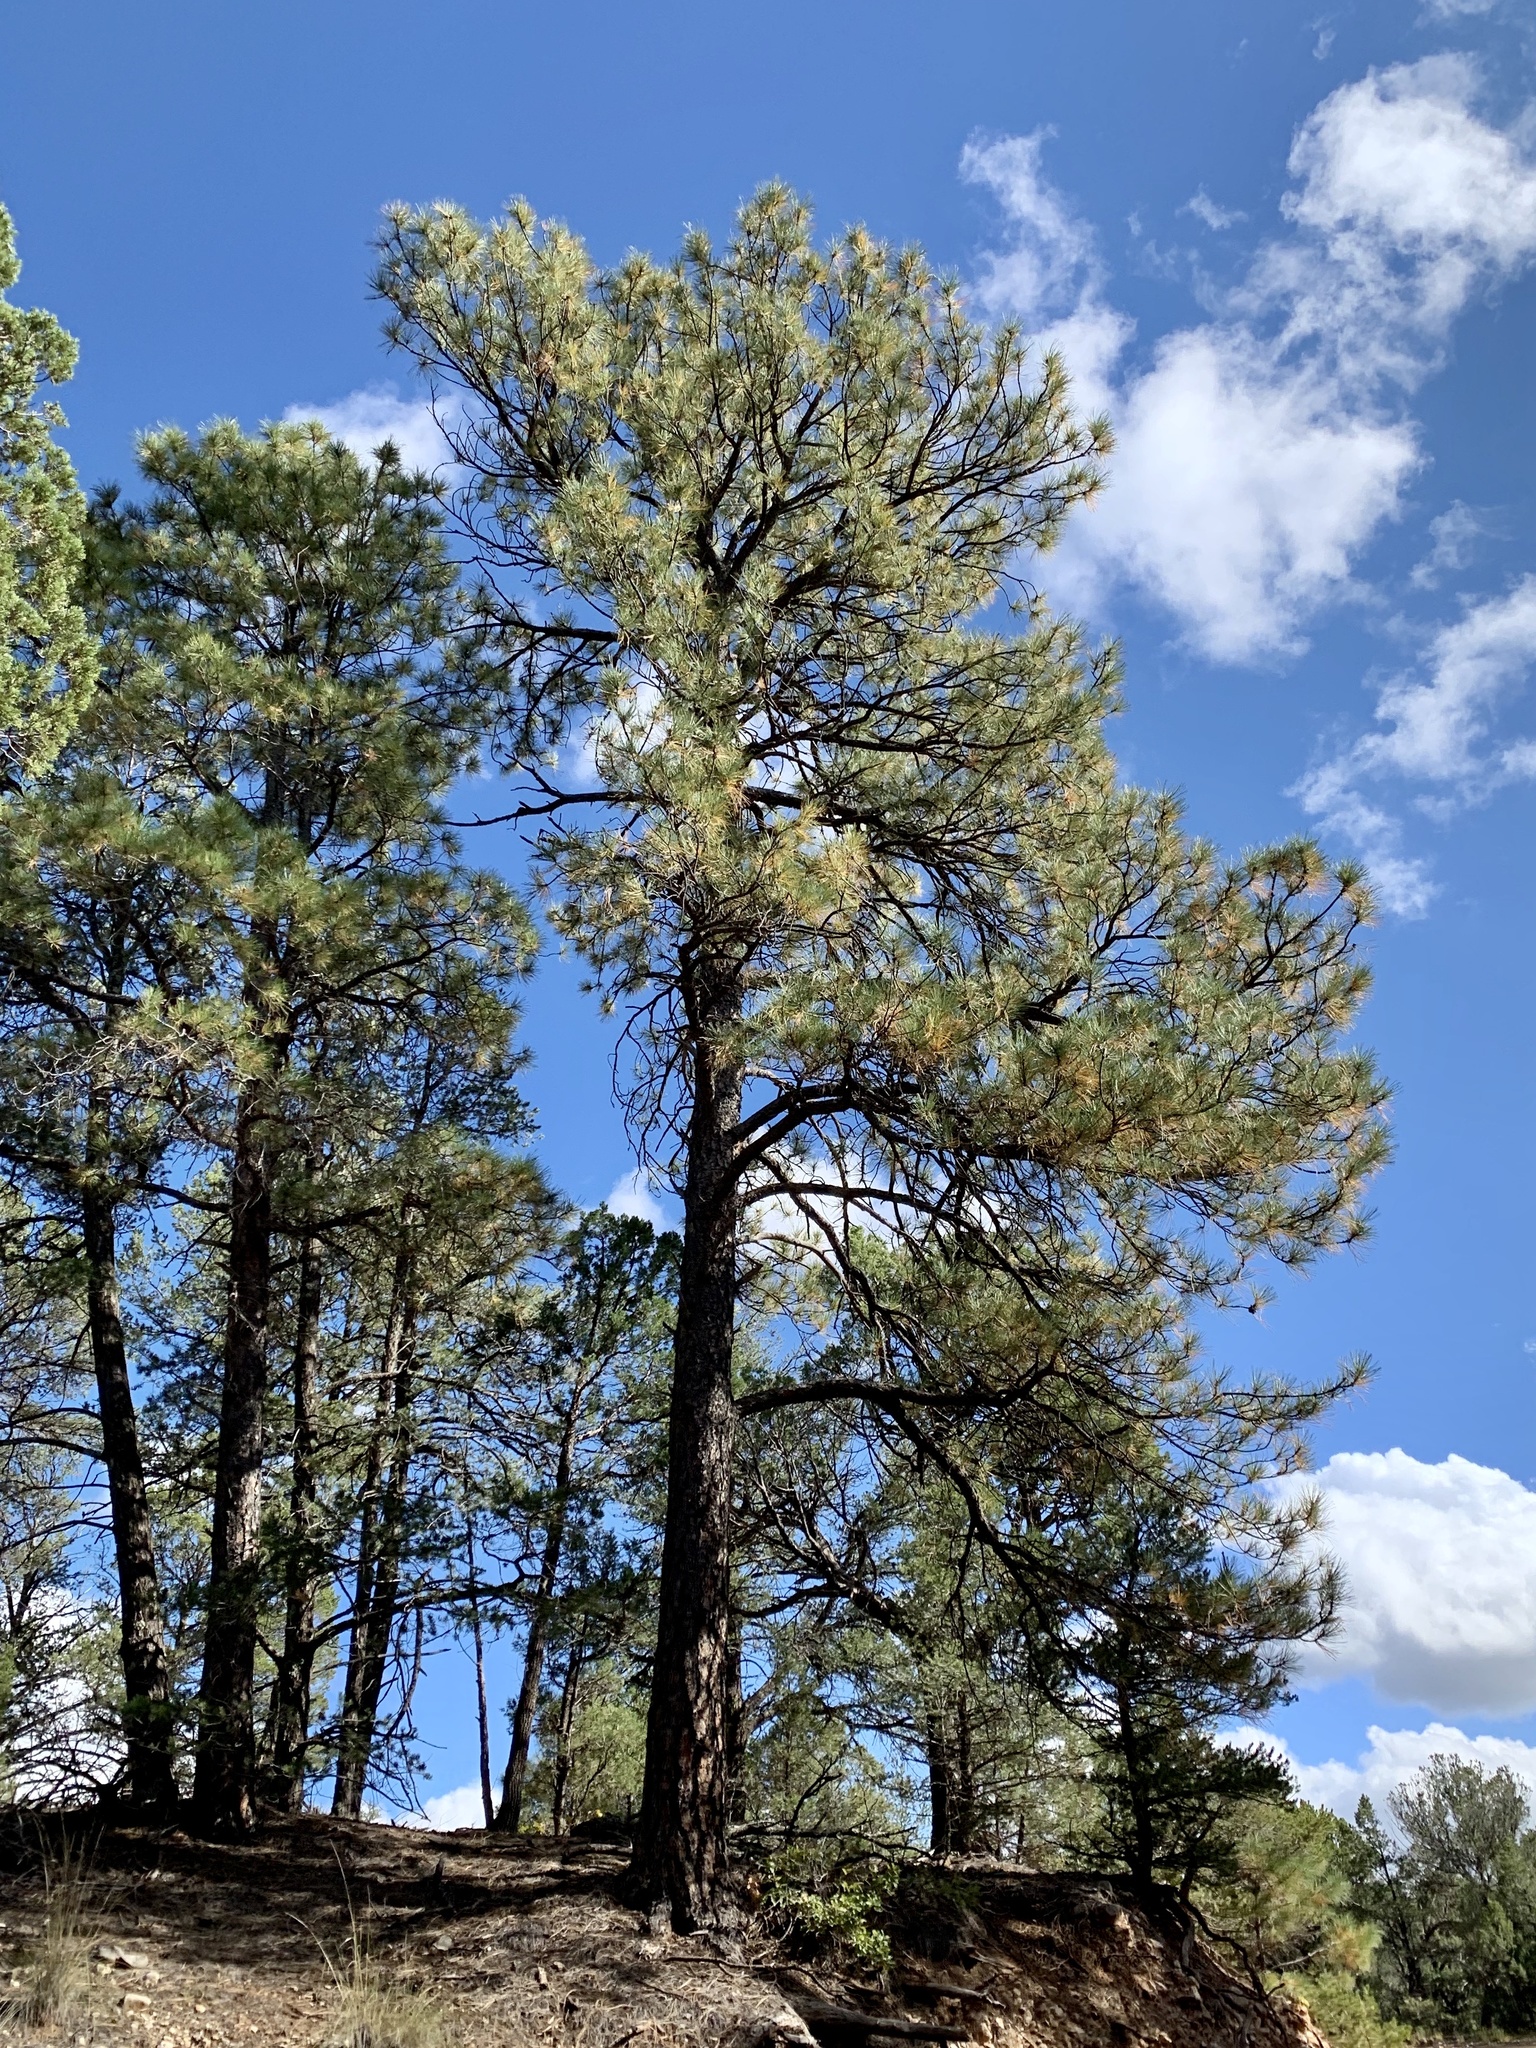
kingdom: Plantae
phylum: Tracheophyta
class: Pinopsida
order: Pinales
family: Pinaceae
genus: Pinus
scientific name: Pinus ponderosa
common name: Western yellow-pine
